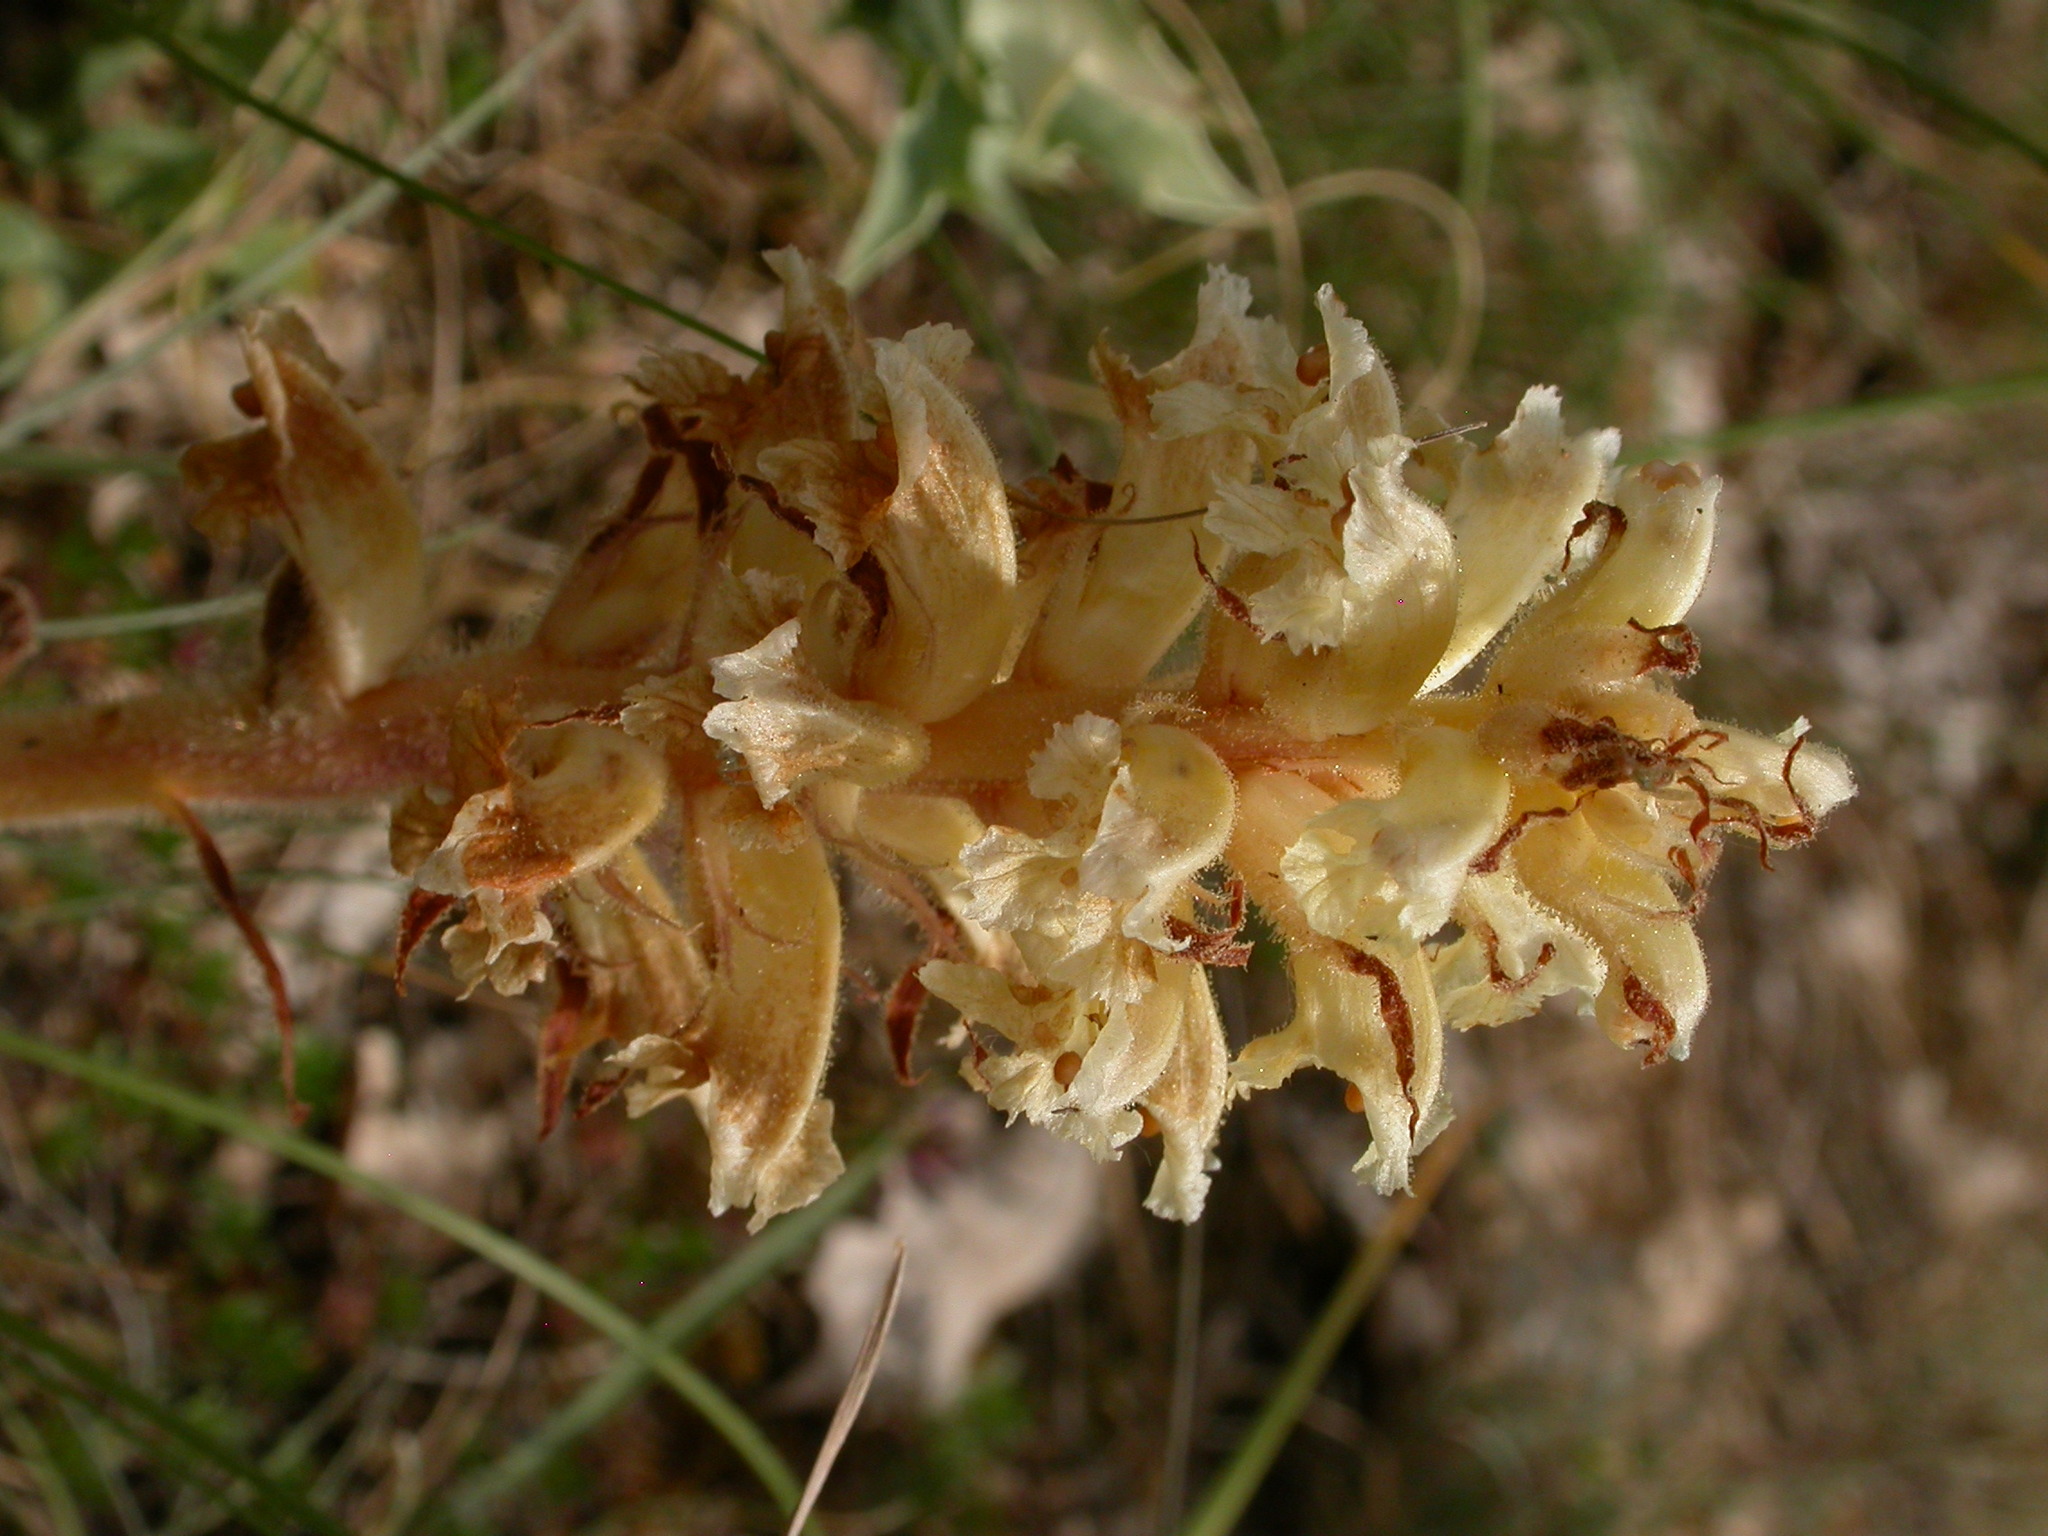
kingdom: Plantae
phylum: Tracheophyta
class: Magnoliopsida
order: Lamiales
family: Orobanchaceae
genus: Orobanche
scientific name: Orobanche amethystea
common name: Amethyst broomrape
